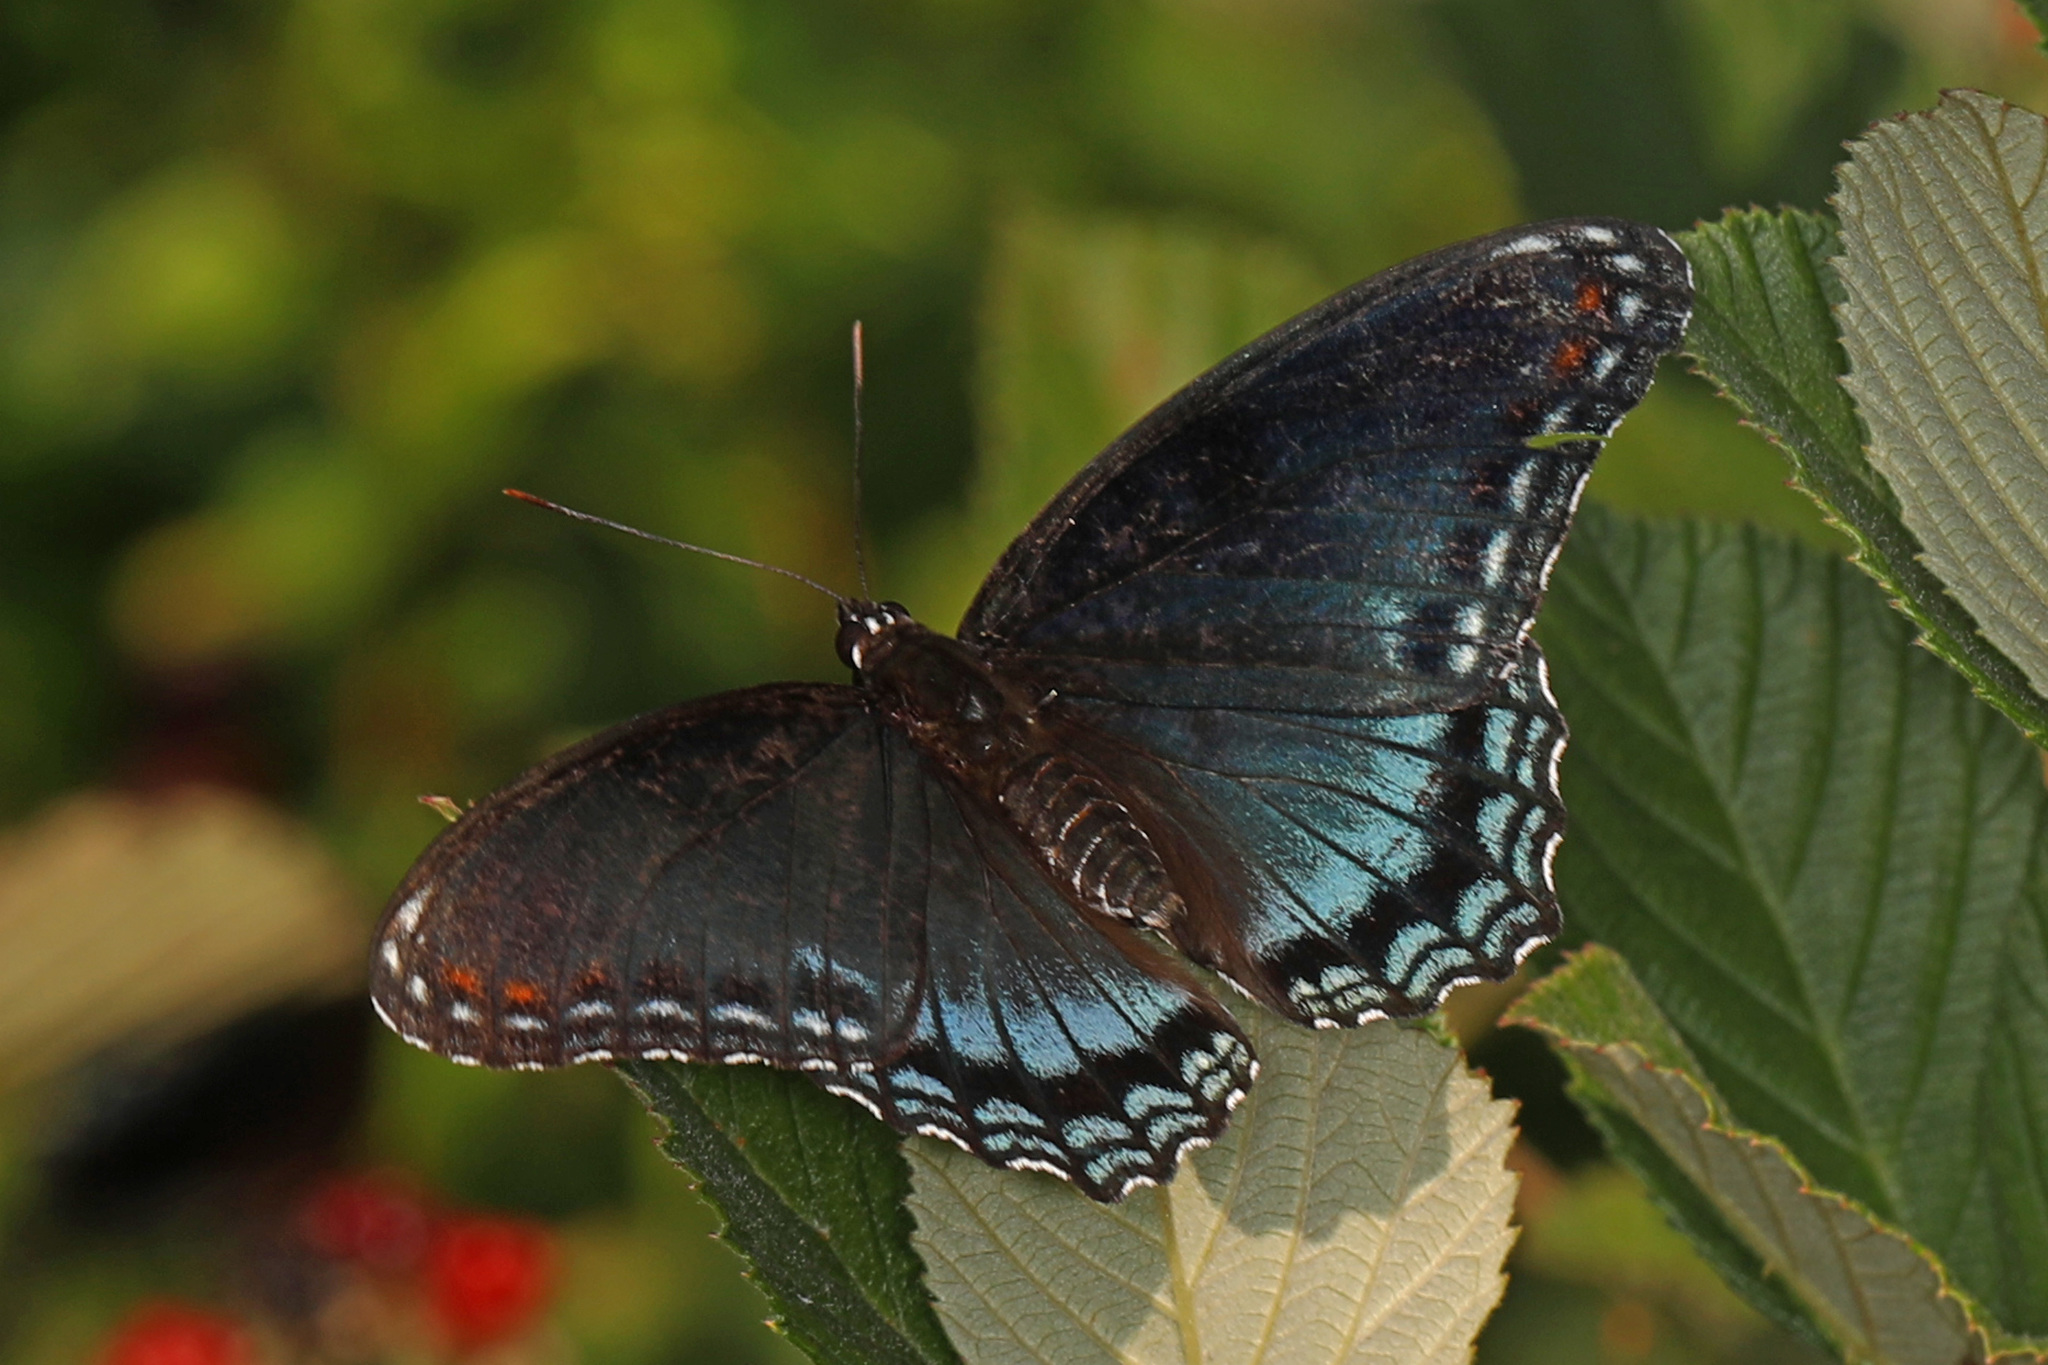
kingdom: Animalia
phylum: Arthropoda
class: Insecta
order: Lepidoptera
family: Nymphalidae
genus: Limenitis
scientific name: Limenitis astyanax
